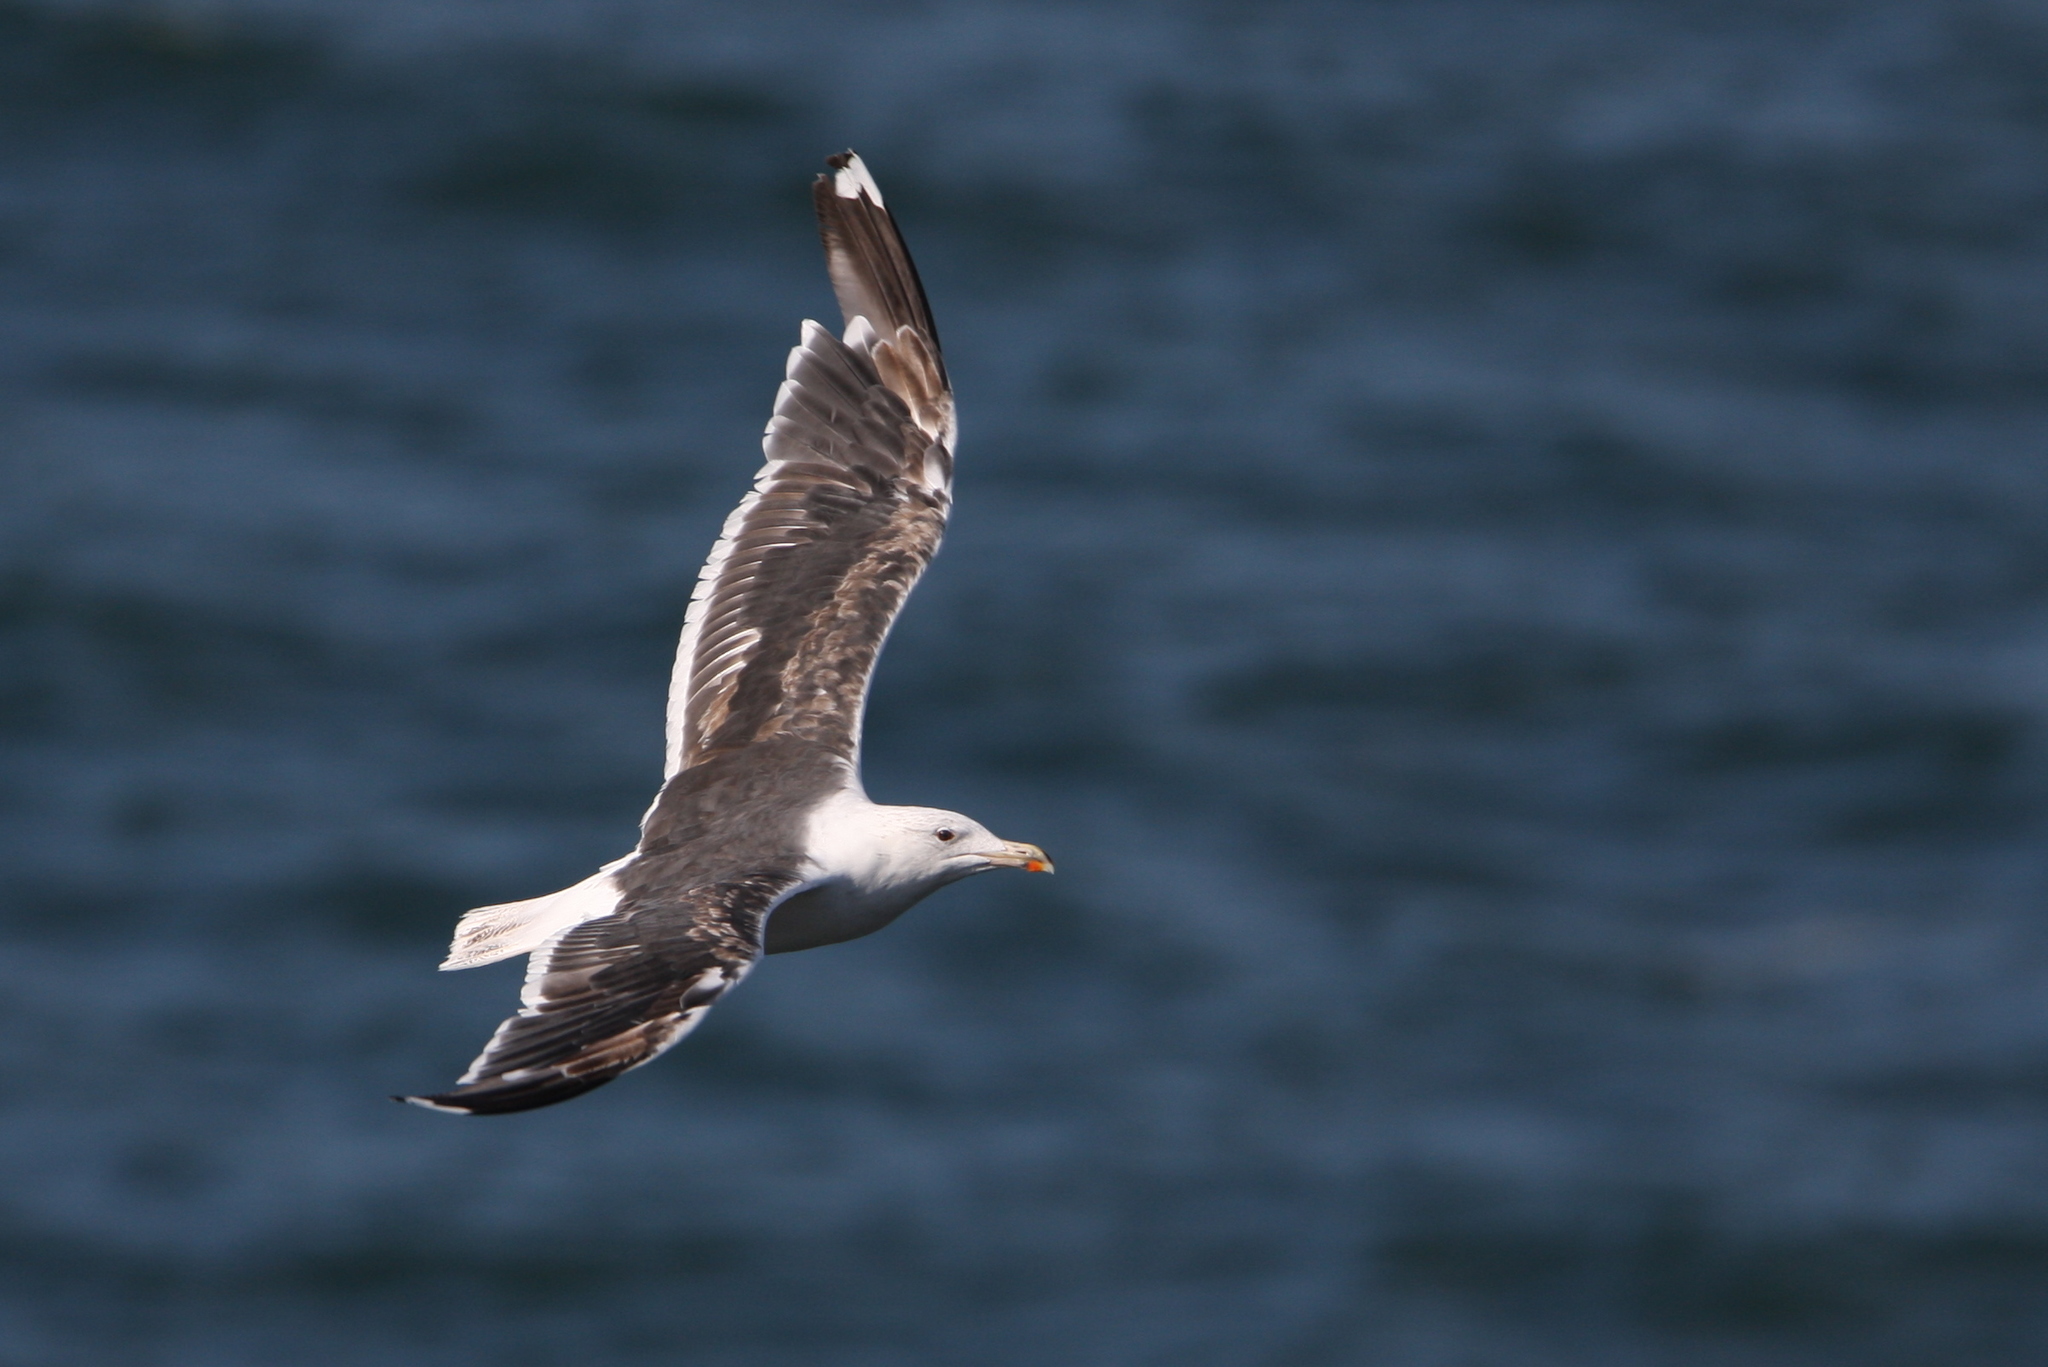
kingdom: Animalia
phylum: Chordata
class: Aves
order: Charadriiformes
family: Laridae
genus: Larus
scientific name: Larus marinus
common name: Great black-backed gull
